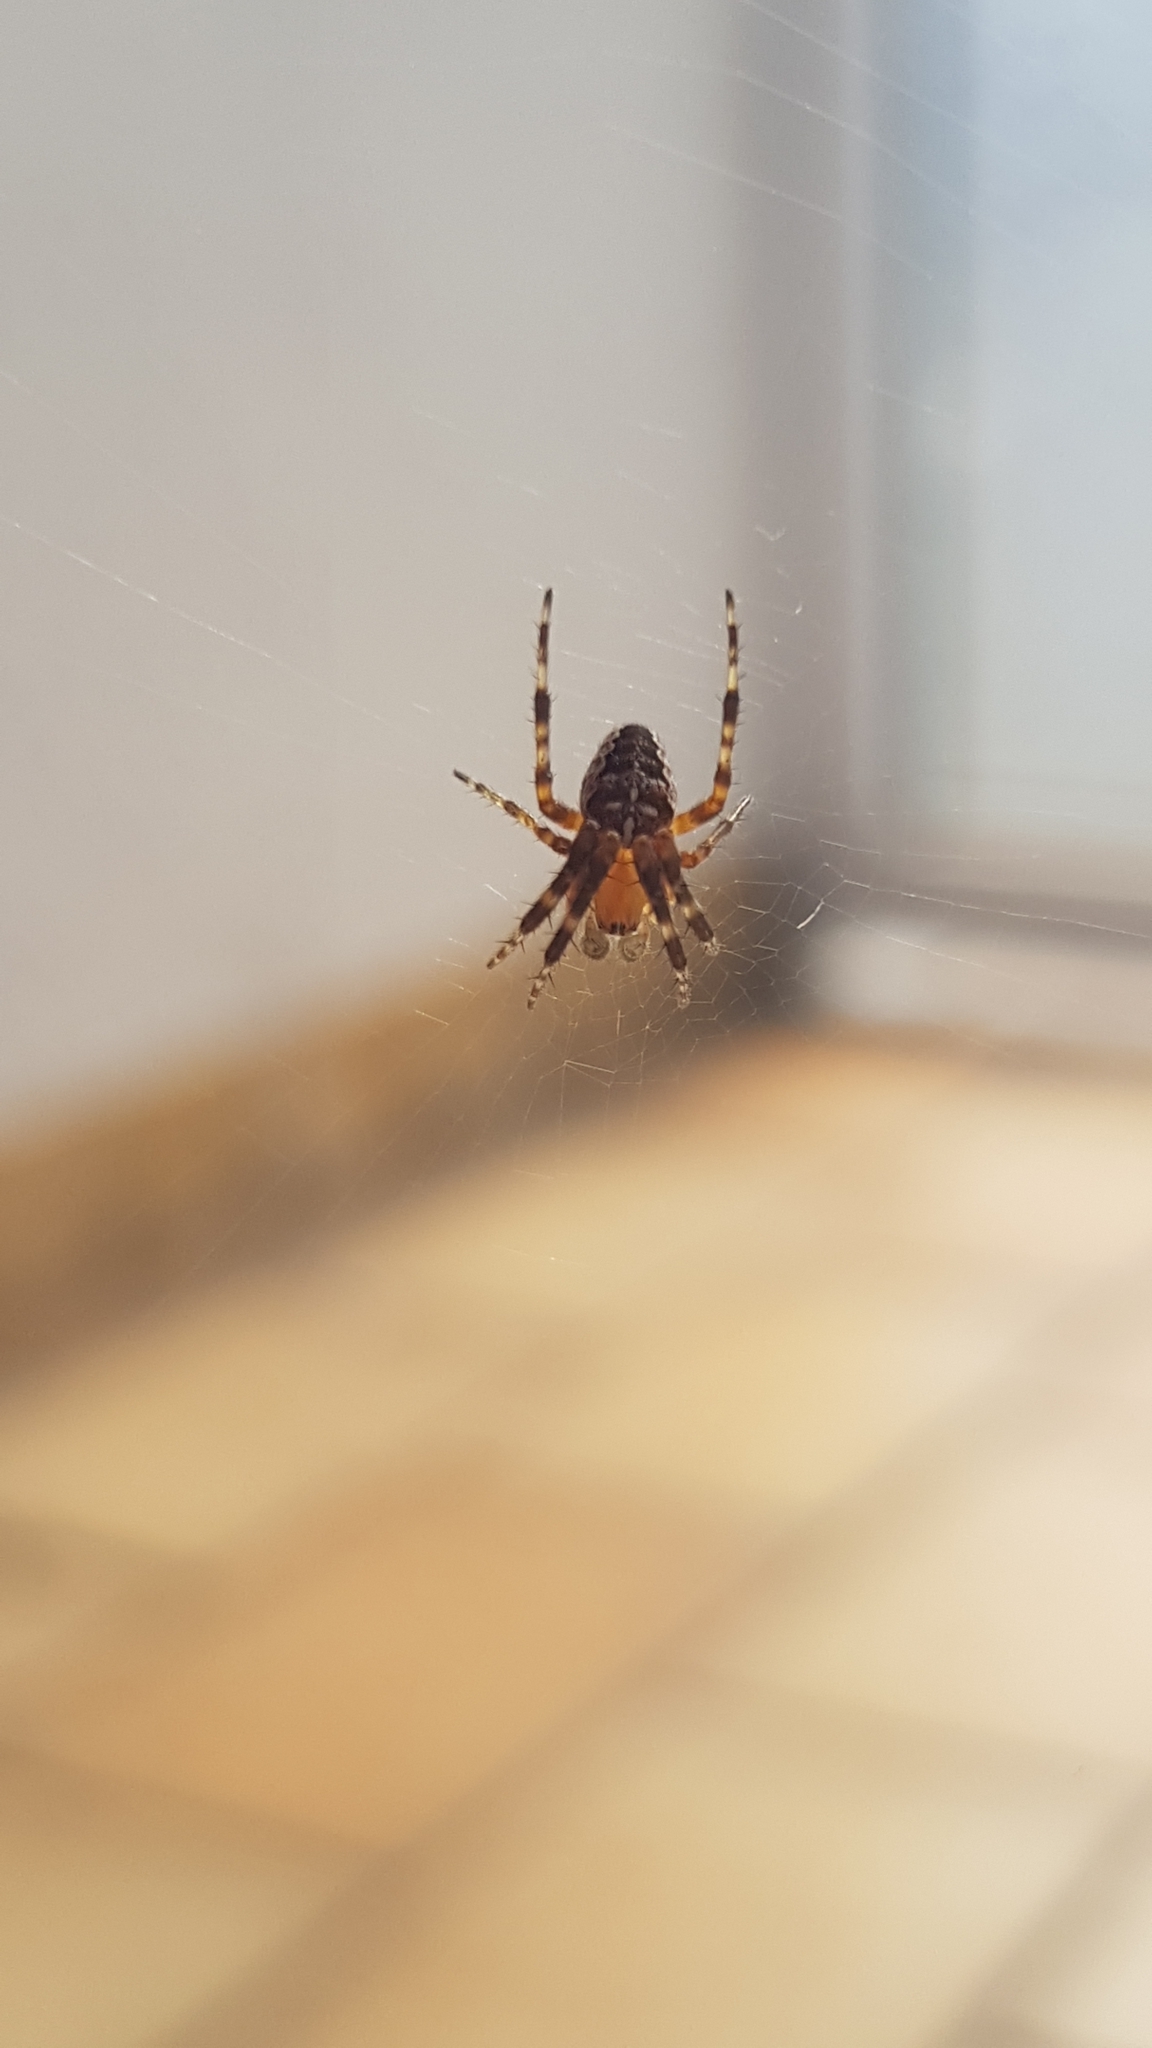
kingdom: Animalia
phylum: Arthropoda
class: Arachnida
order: Araneae
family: Araneidae
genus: Araneus
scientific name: Araneus diadematus
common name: Cross orbweaver
